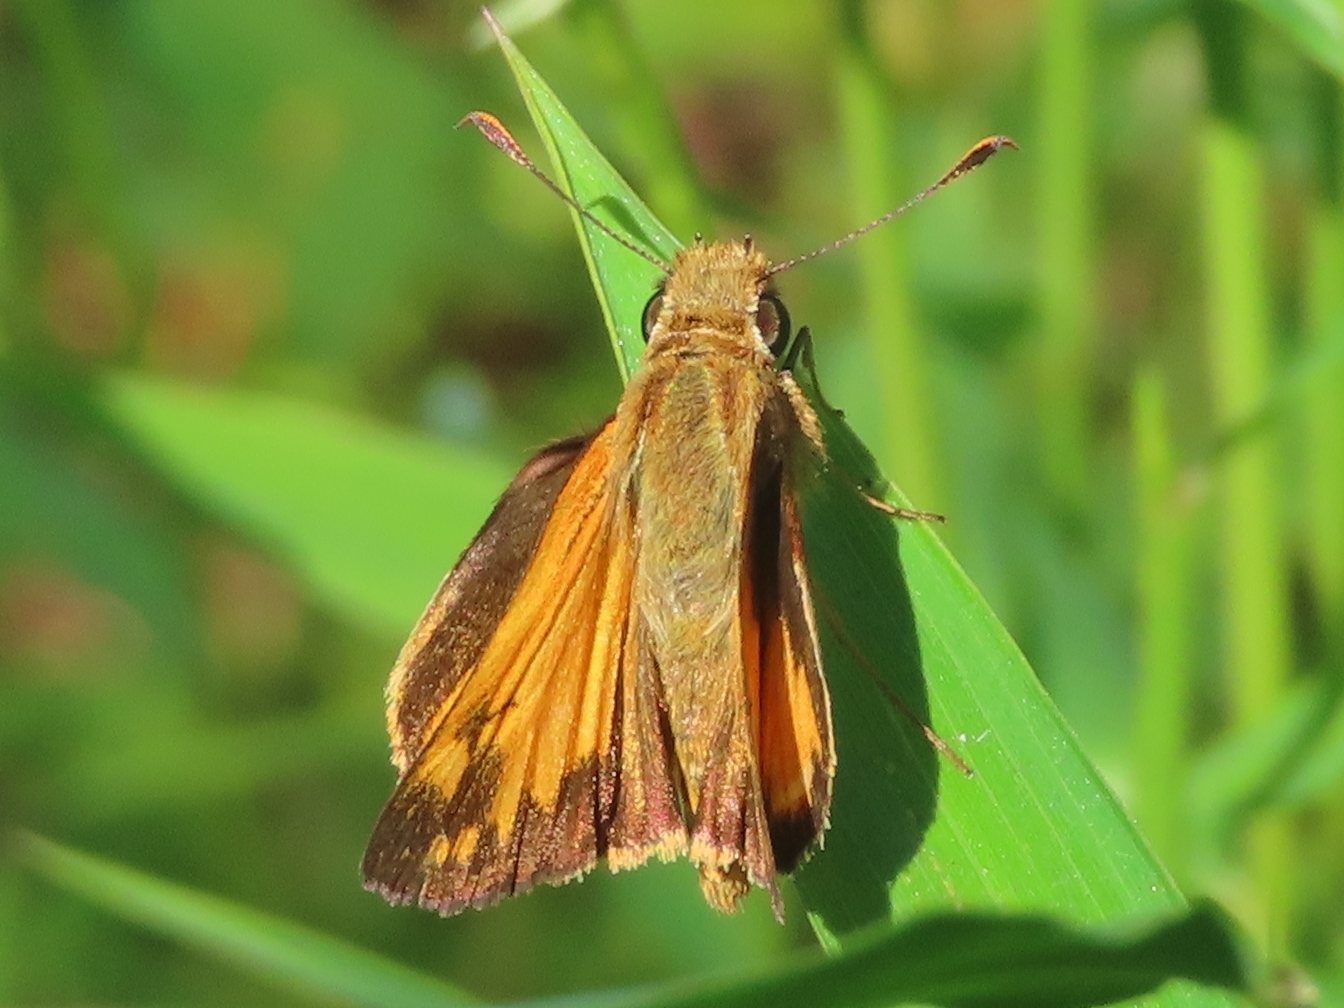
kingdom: Animalia
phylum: Arthropoda
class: Insecta
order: Lepidoptera
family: Hesperiidae
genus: Lon
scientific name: Lon zabulon
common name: Zabulon skipper
